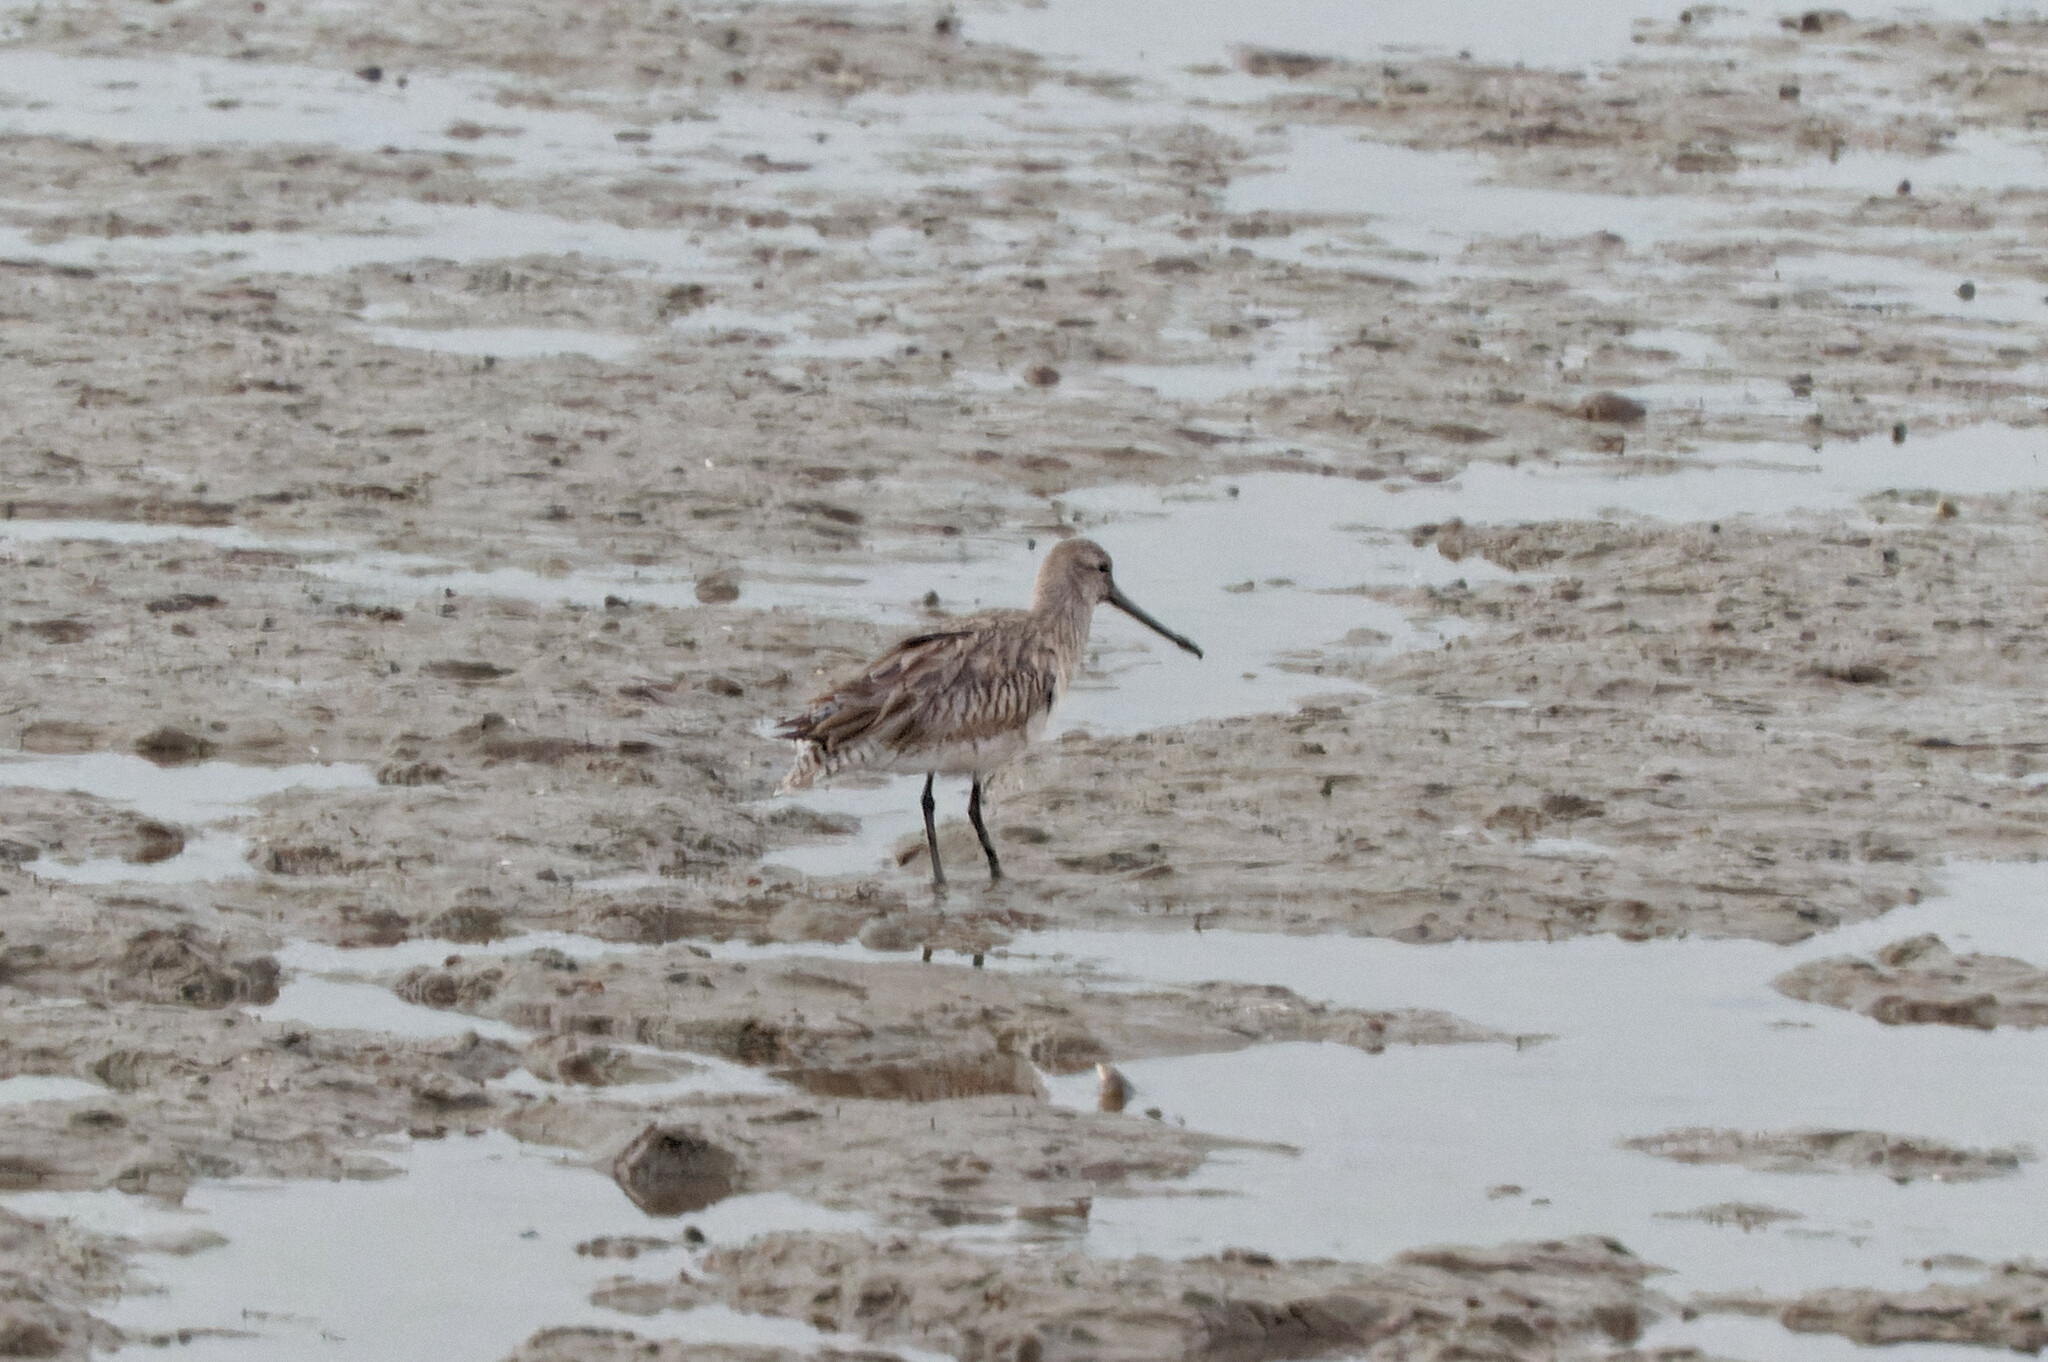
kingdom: Animalia
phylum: Chordata
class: Aves
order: Charadriiformes
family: Scolopacidae
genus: Limosa
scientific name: Limosa lapponica
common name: Bar-tailed godwit
